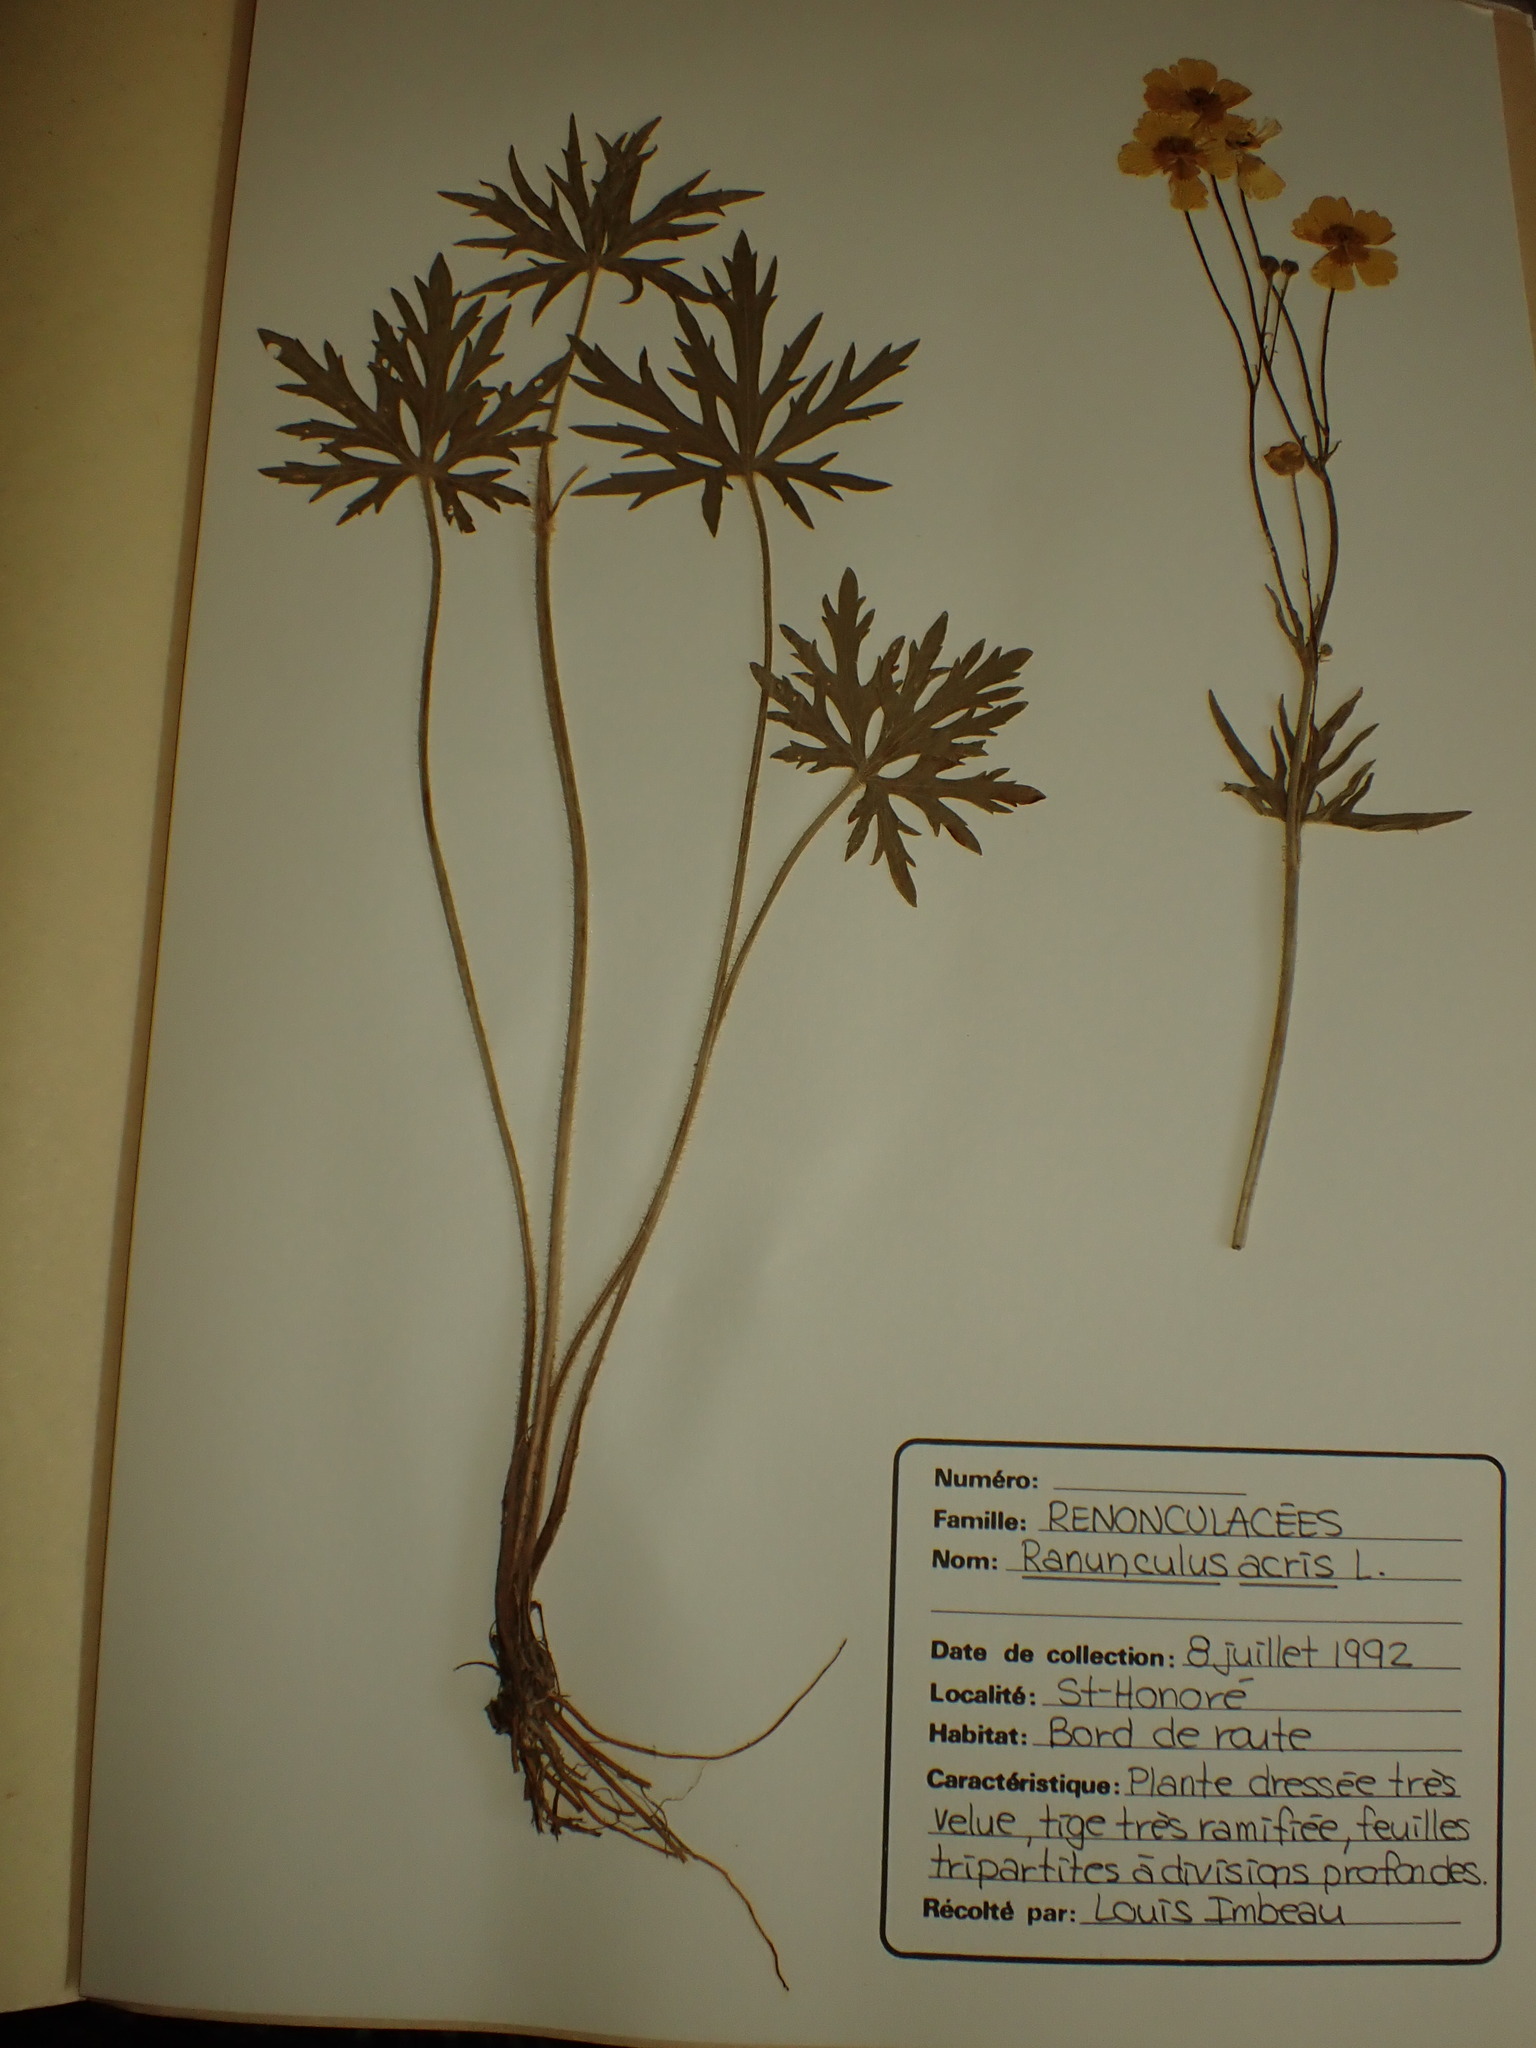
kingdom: Plantae
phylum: Tracheophyta
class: Magnoliopsida
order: Ranunculales
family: Ranunculaceae
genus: Ranunculus
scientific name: Ranunculus acris
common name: Meadow buttercup
